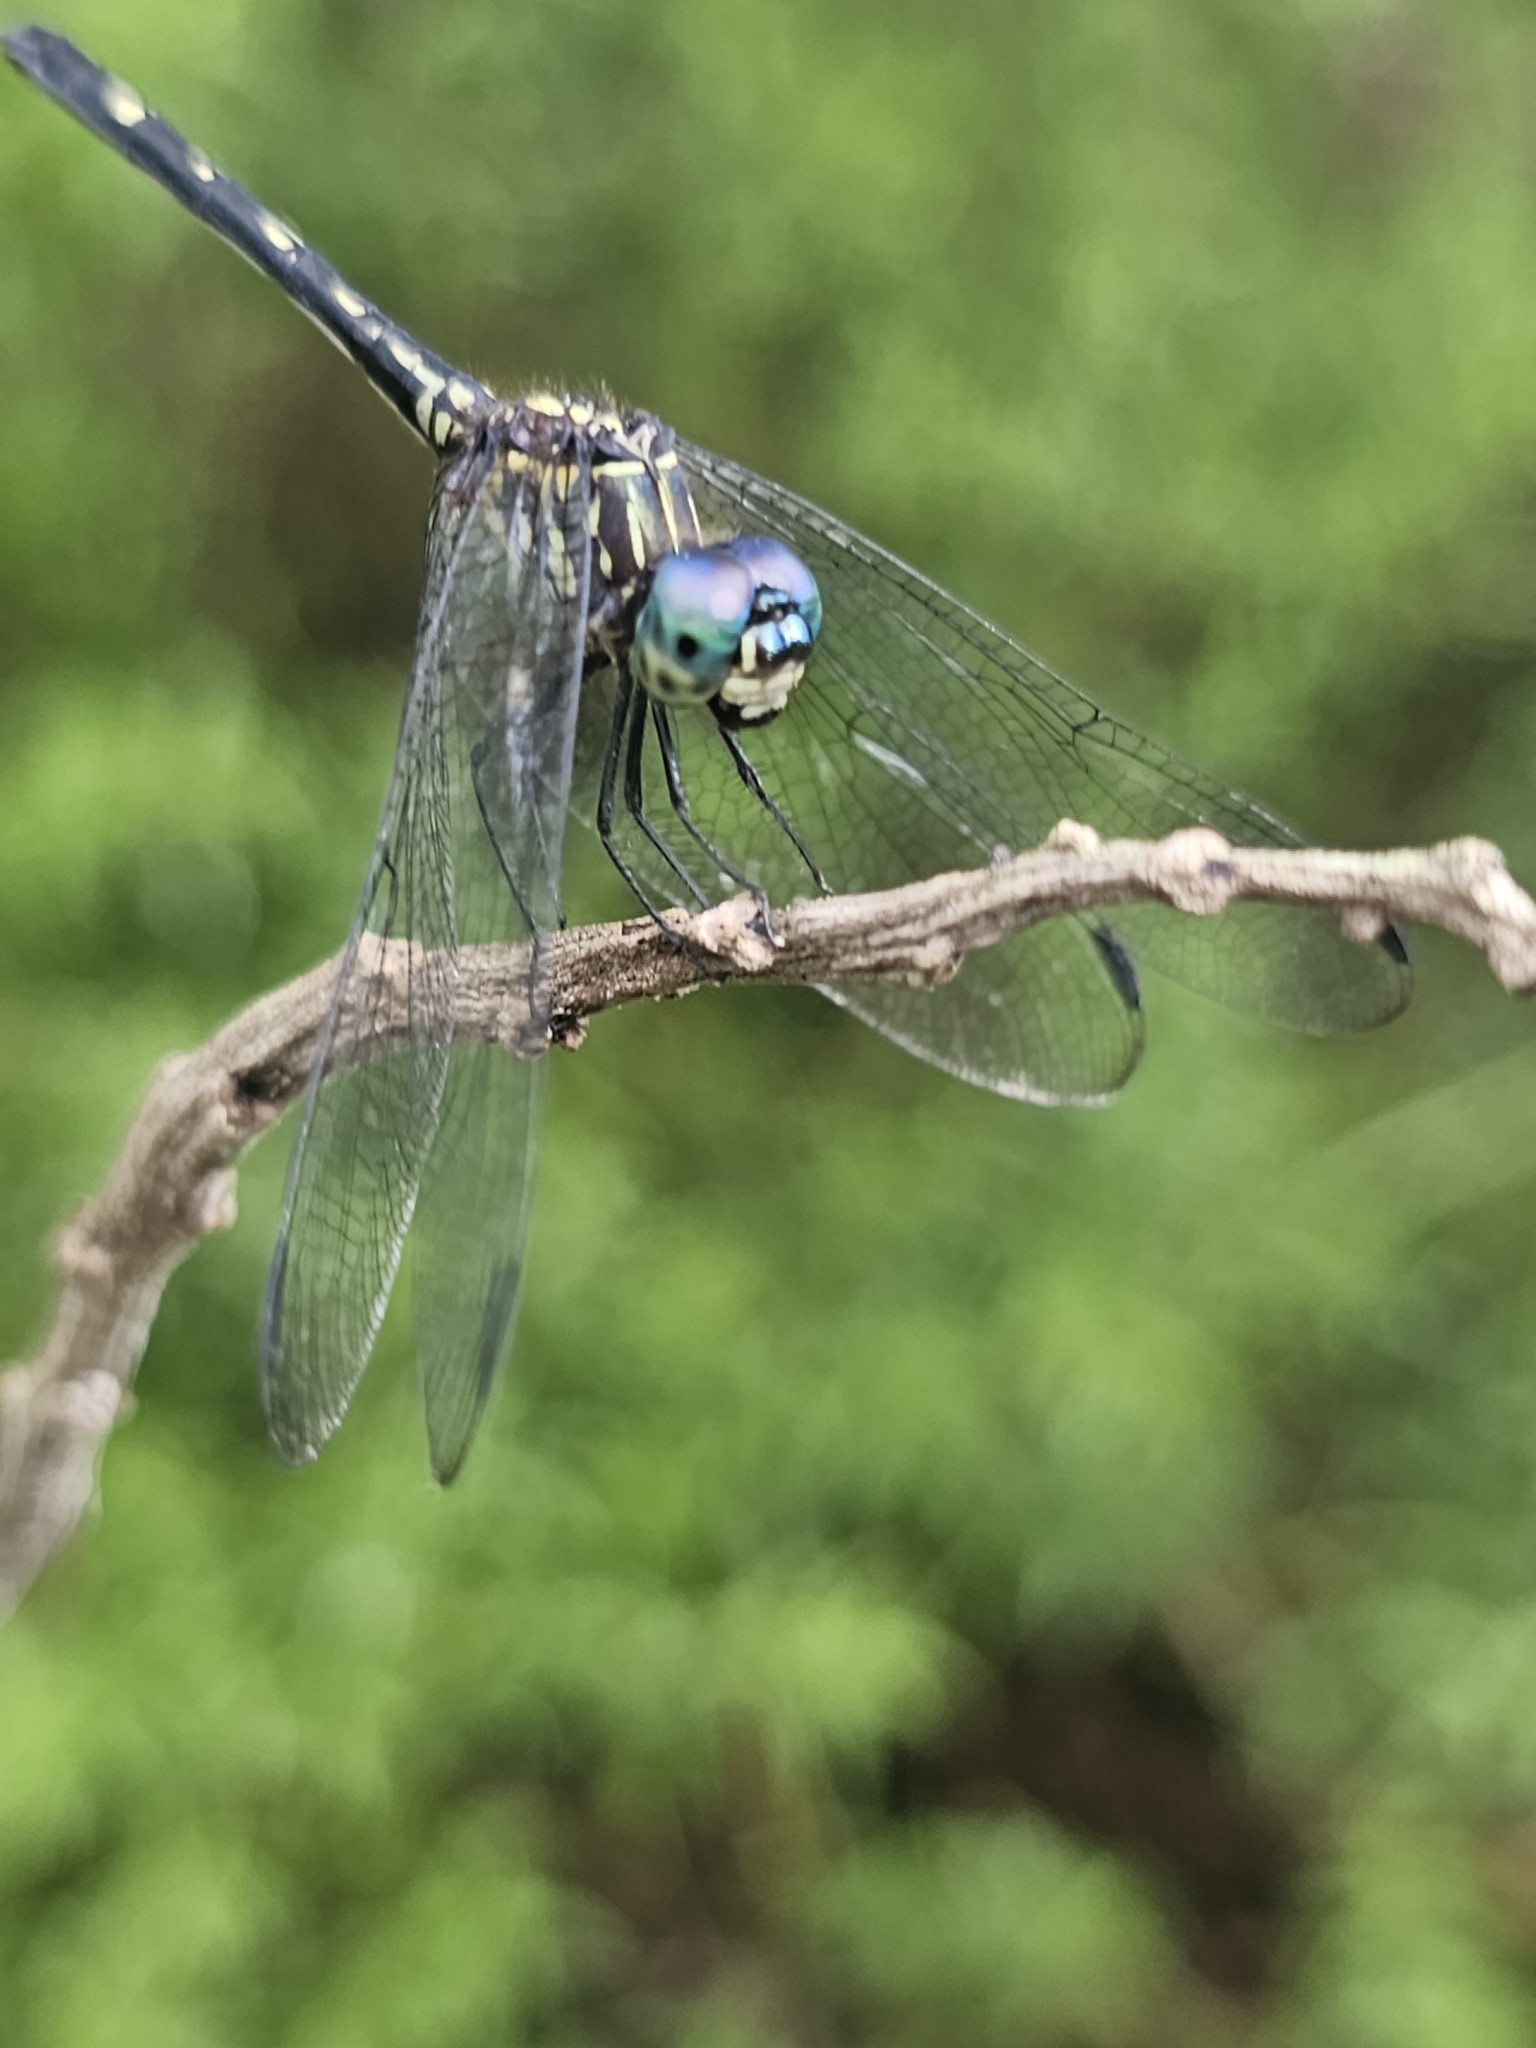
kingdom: Animalia
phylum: Arthropoda
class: Insecta
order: Odonata
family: Libellulidae
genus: Dythemis
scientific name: Dythemis nigra
